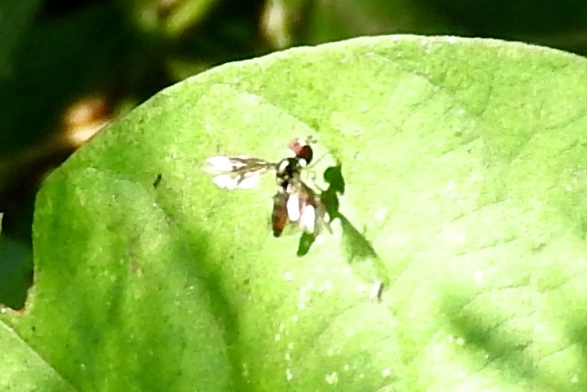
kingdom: Animalia
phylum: Arthropoda
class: Insecta
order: Diptera
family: Syrphidae
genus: Ocyptamus
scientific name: Ocyptamus
